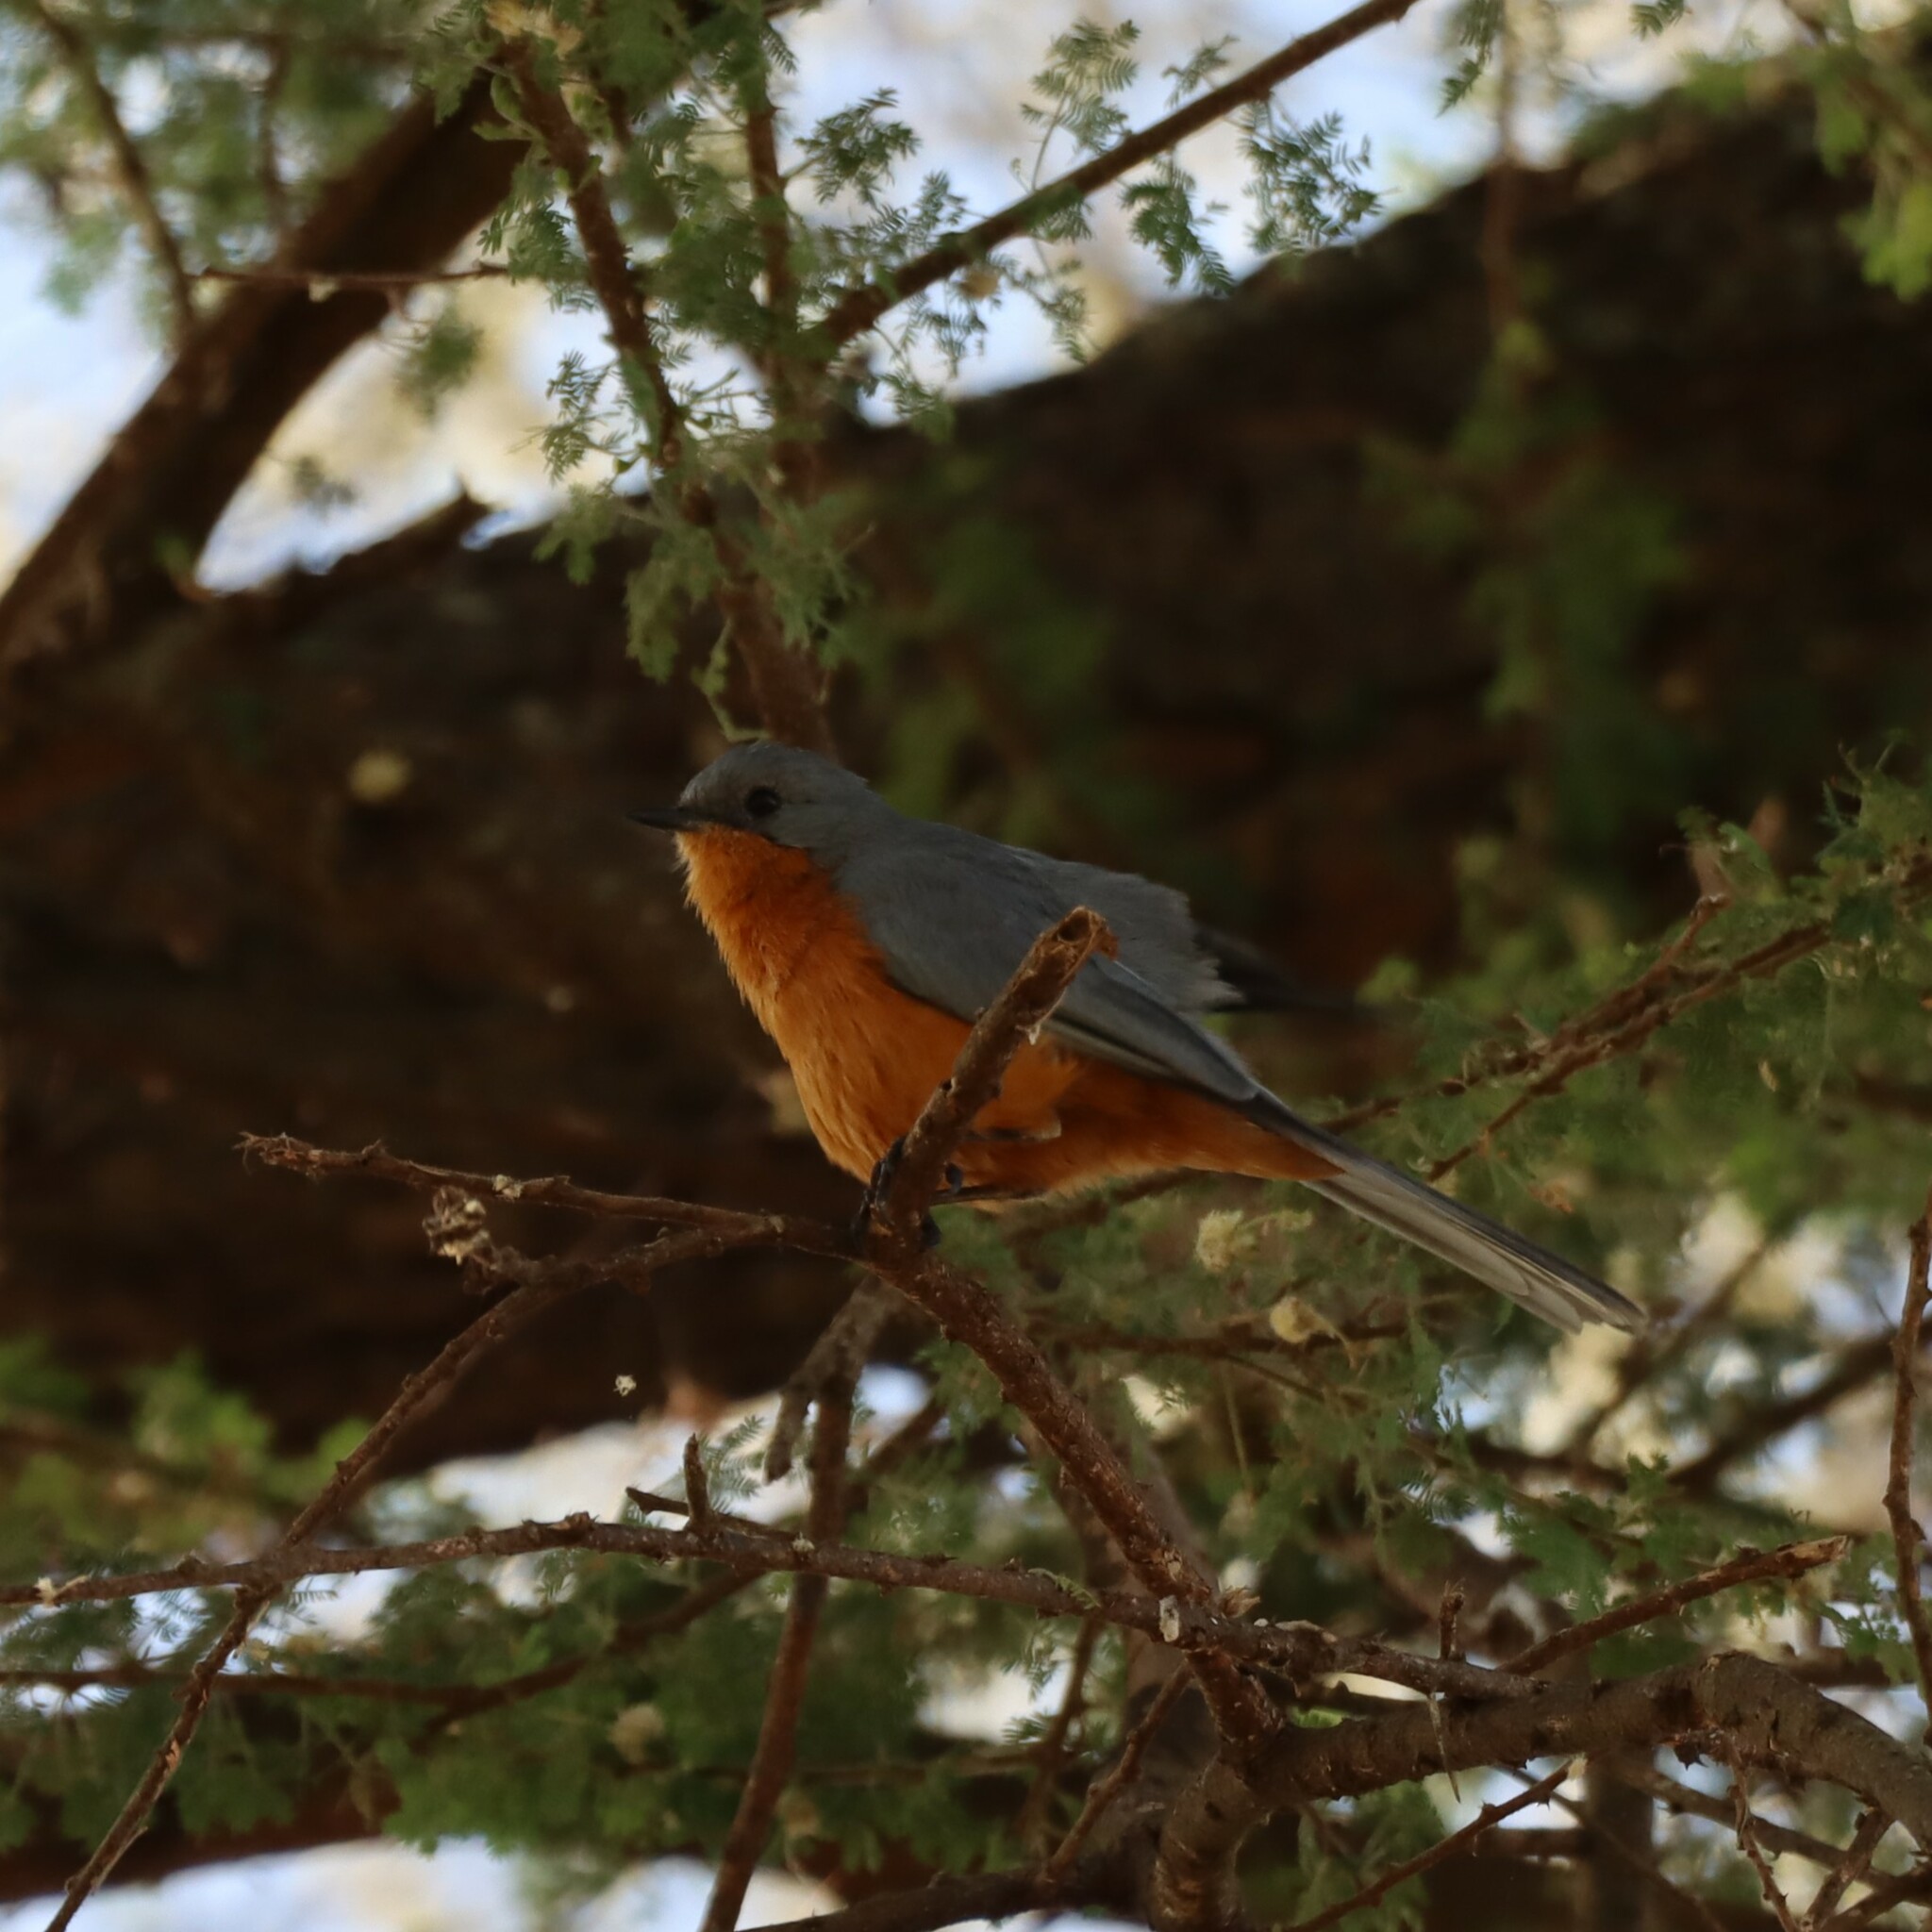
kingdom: Animalia
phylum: Chordata
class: Aves
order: Passeriformes
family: Muscicapidae
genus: Empidornis
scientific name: Empidornis semipartitus
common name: Silverbird
